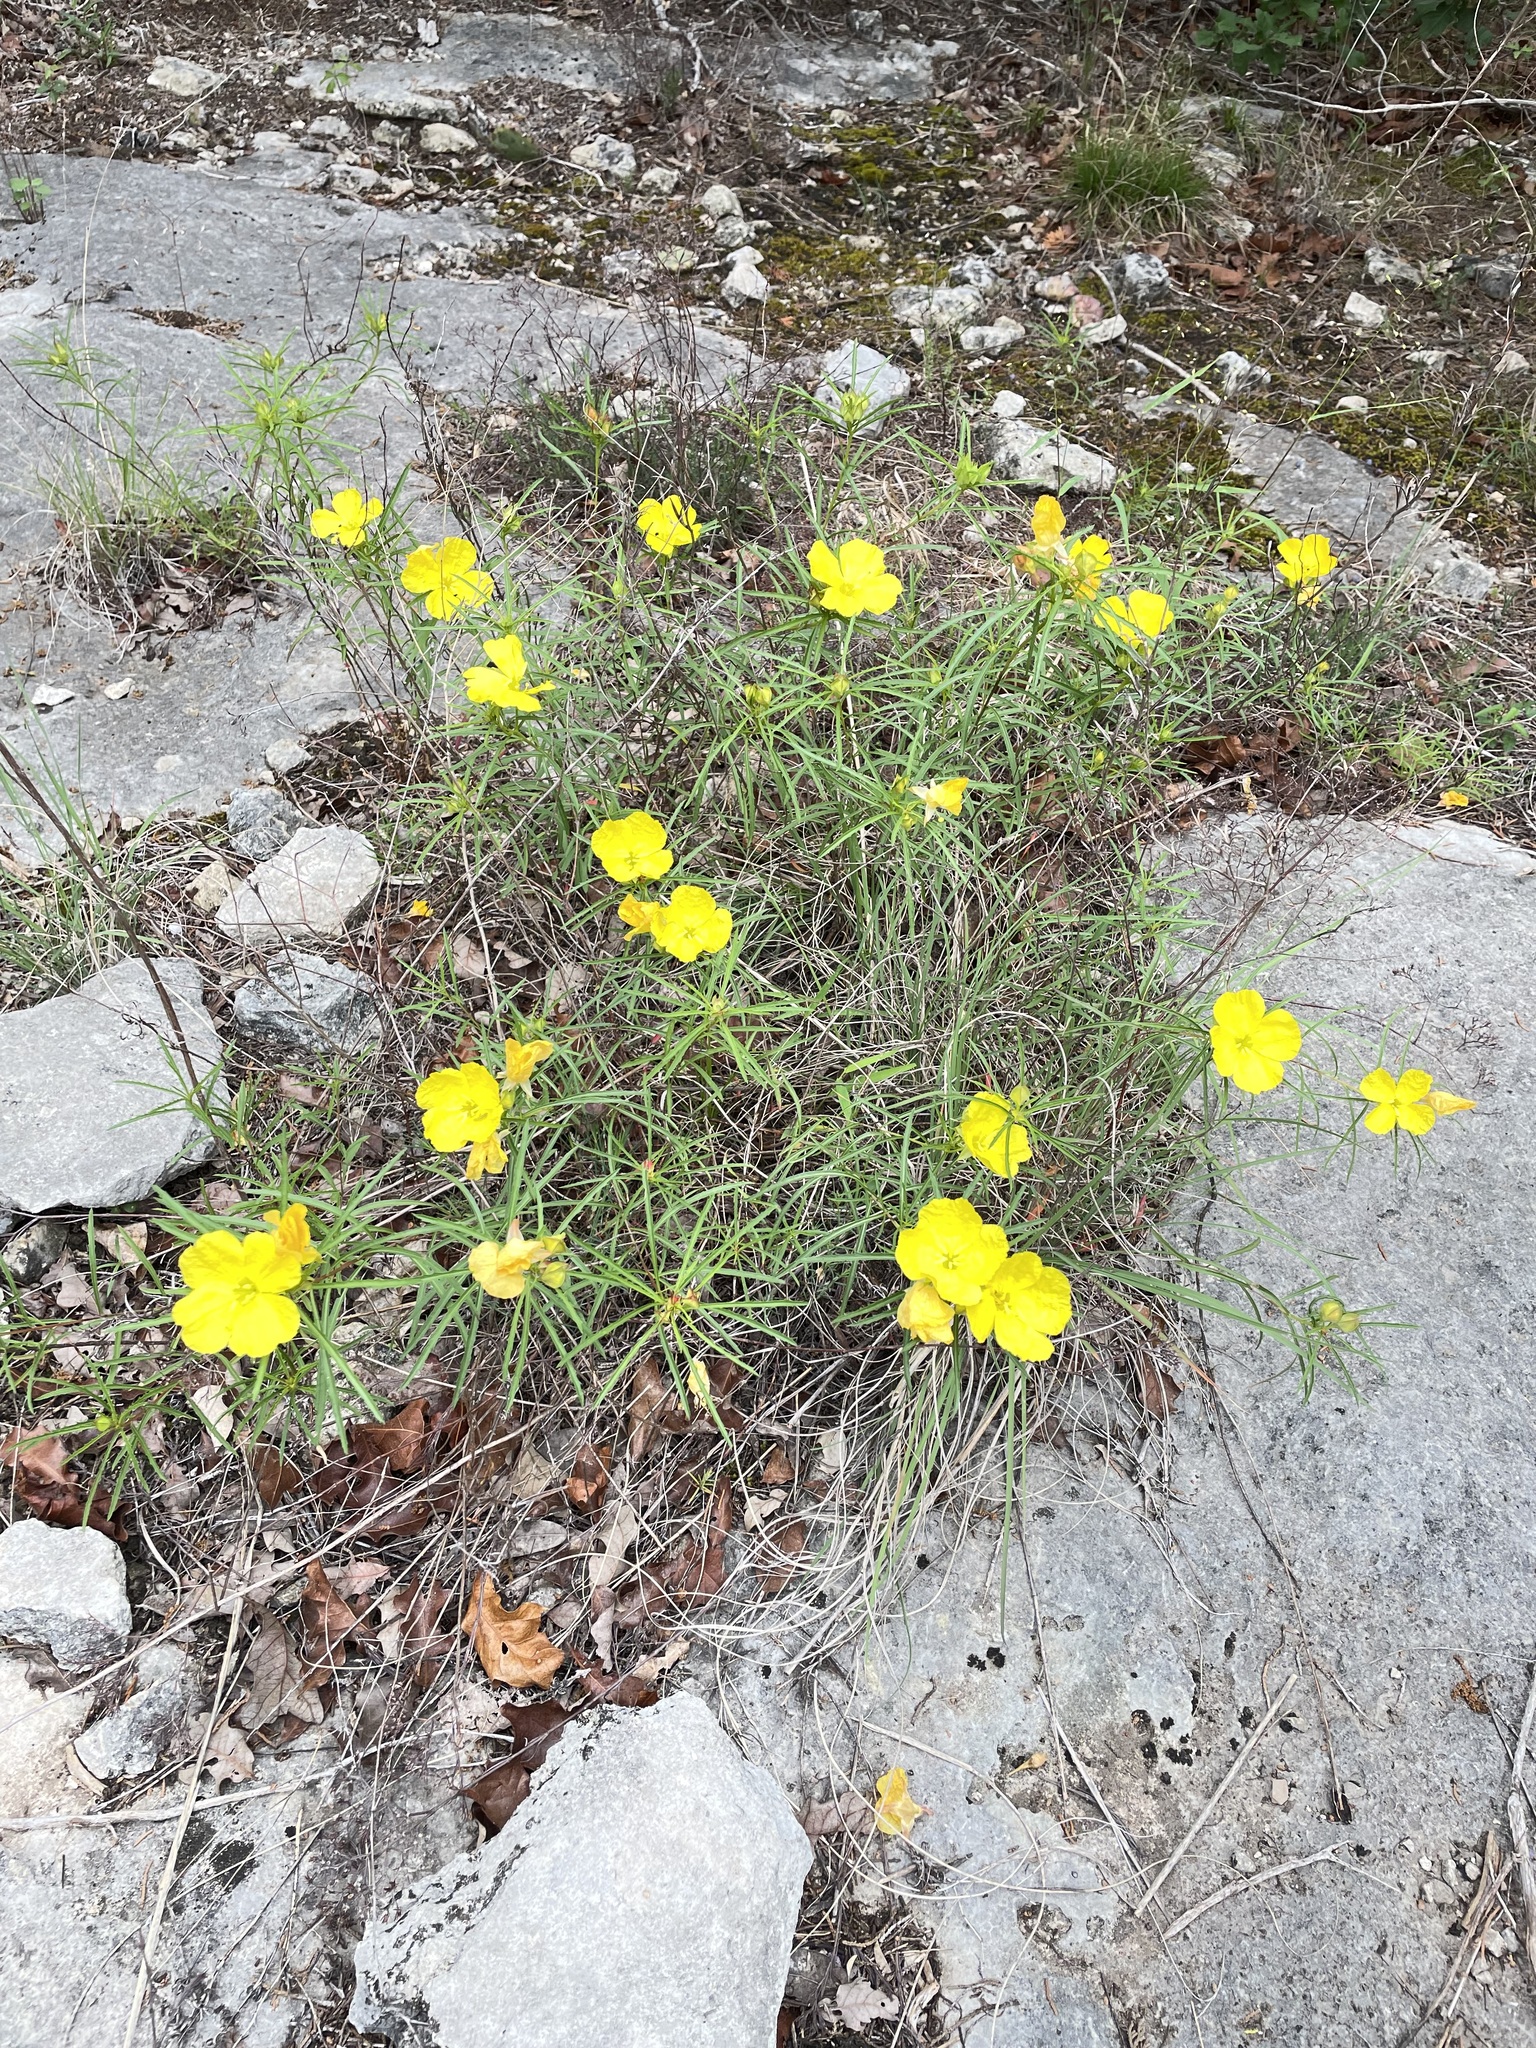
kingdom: Plantae
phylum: Tracheophyta
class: Magnoliopsida
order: Myrtales
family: Onagraceae
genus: Oenothera
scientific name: Oenothera
